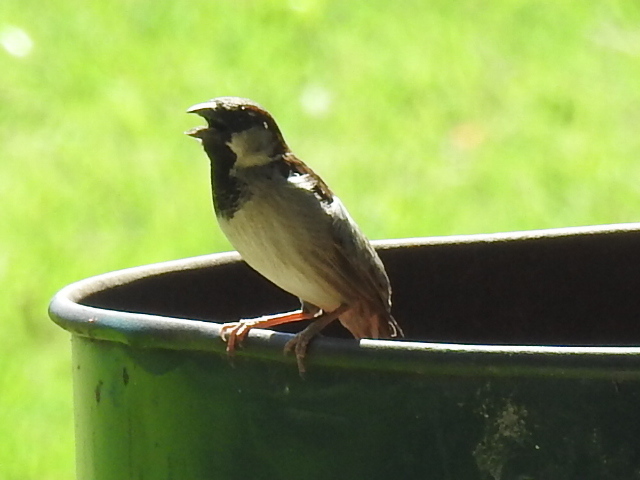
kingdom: Animalia
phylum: Chordata
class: Aves
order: Passeriformes
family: Passeridae
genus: Passer
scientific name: Passer domesticus
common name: House sparrow
